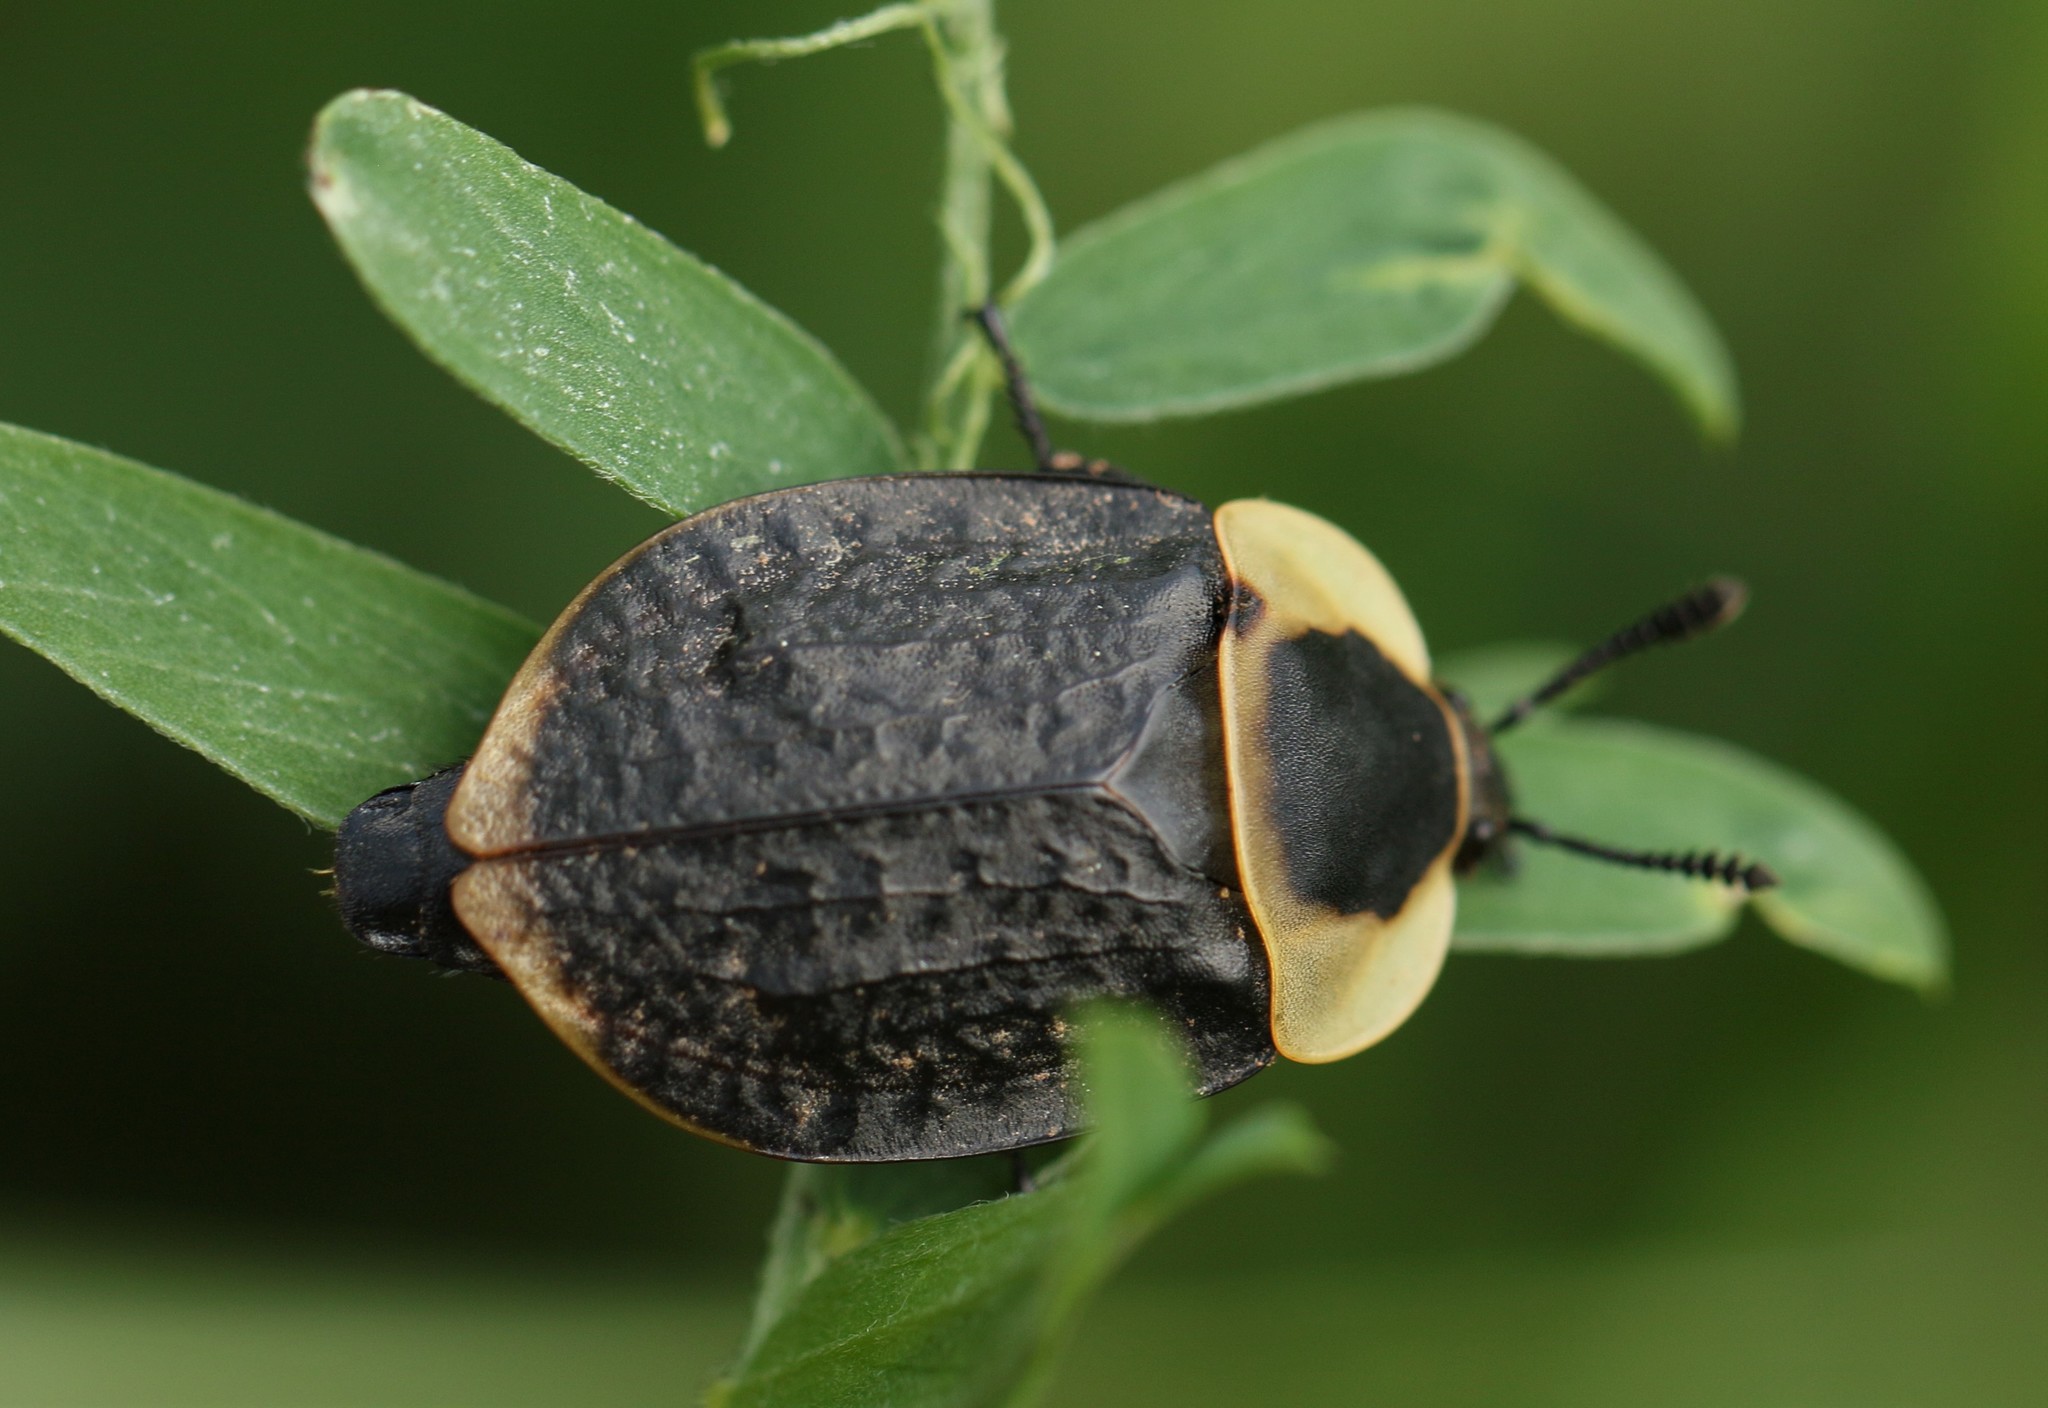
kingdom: Animalia
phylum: Arthropoda
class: Insecta
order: Coleoptera
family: Staphylinidae
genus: Necrophila
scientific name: Necrophila americana
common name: American carrion beetle
